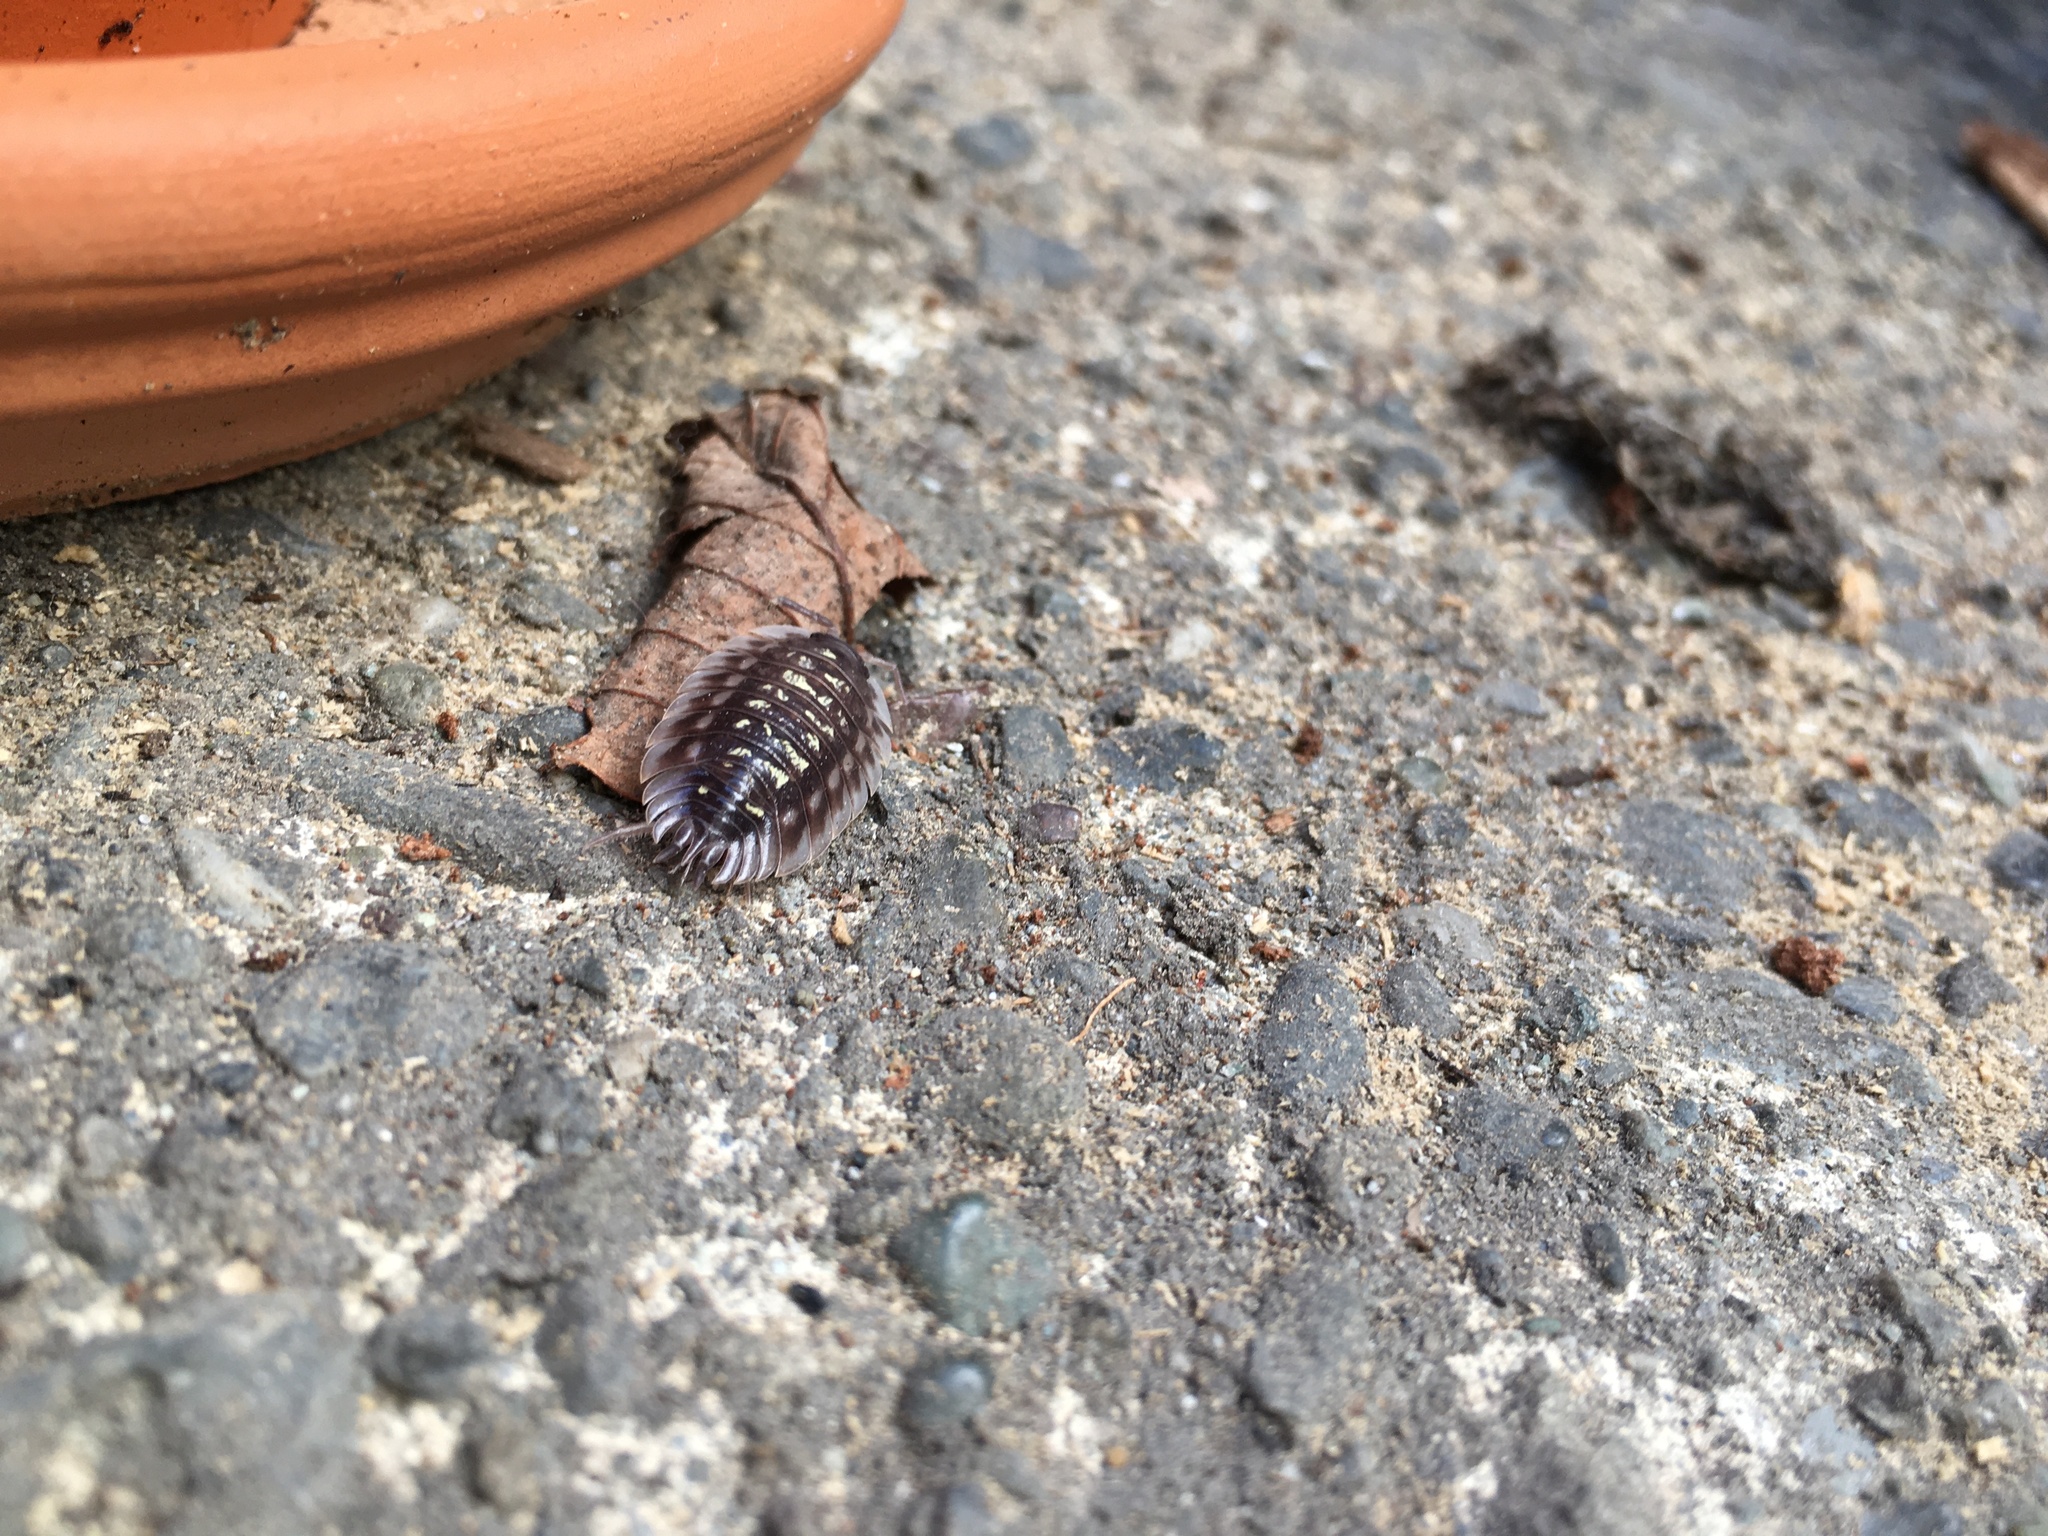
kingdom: Animalia
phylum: Arthropoda
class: Malacostraca
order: Isopoda
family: Oniscidae
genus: Oniscus
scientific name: Oniscus asellus
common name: Common shiny woodlouse
